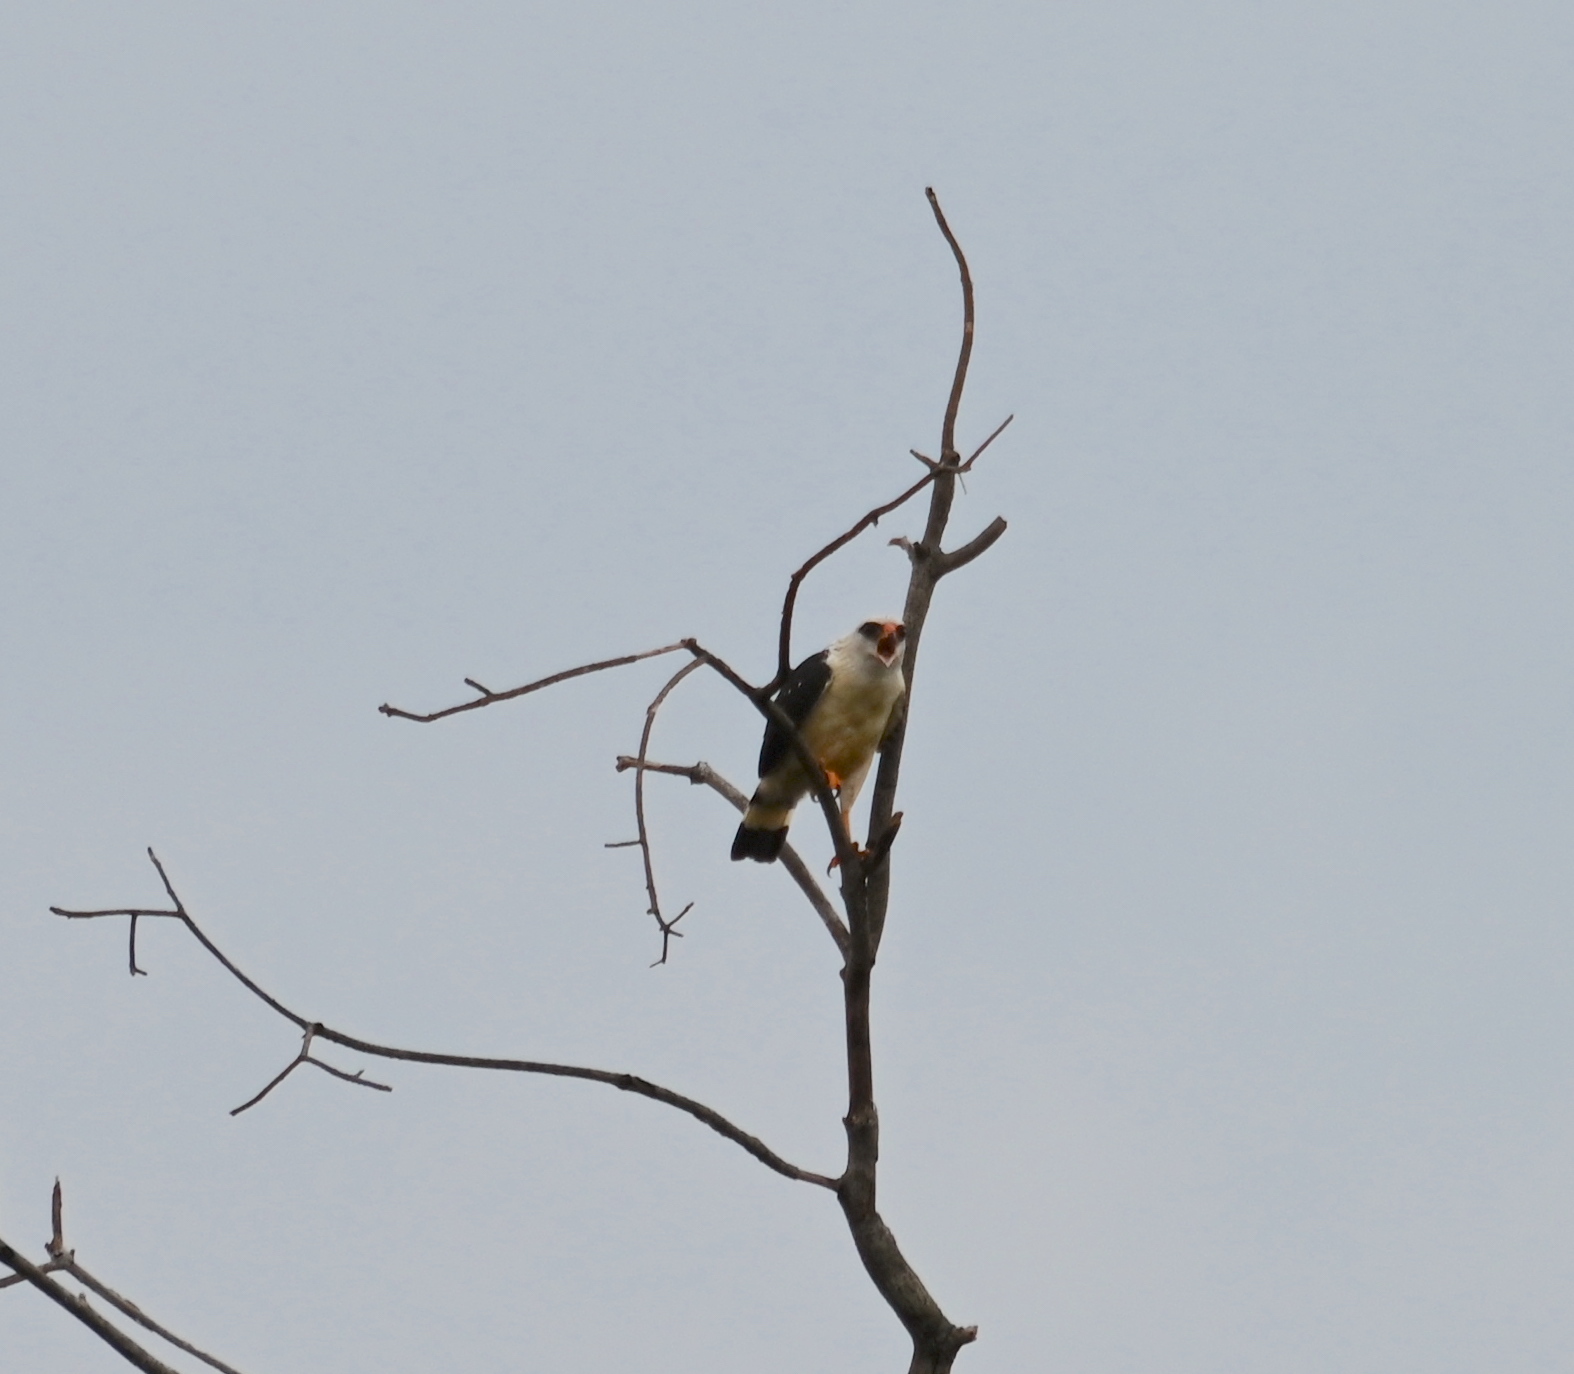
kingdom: Animalia
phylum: Chordata
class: Aves
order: Accipitriformes
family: Accipitridae
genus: Leucopternis
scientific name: Leucopternis melanops
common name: Black-faced hawk
